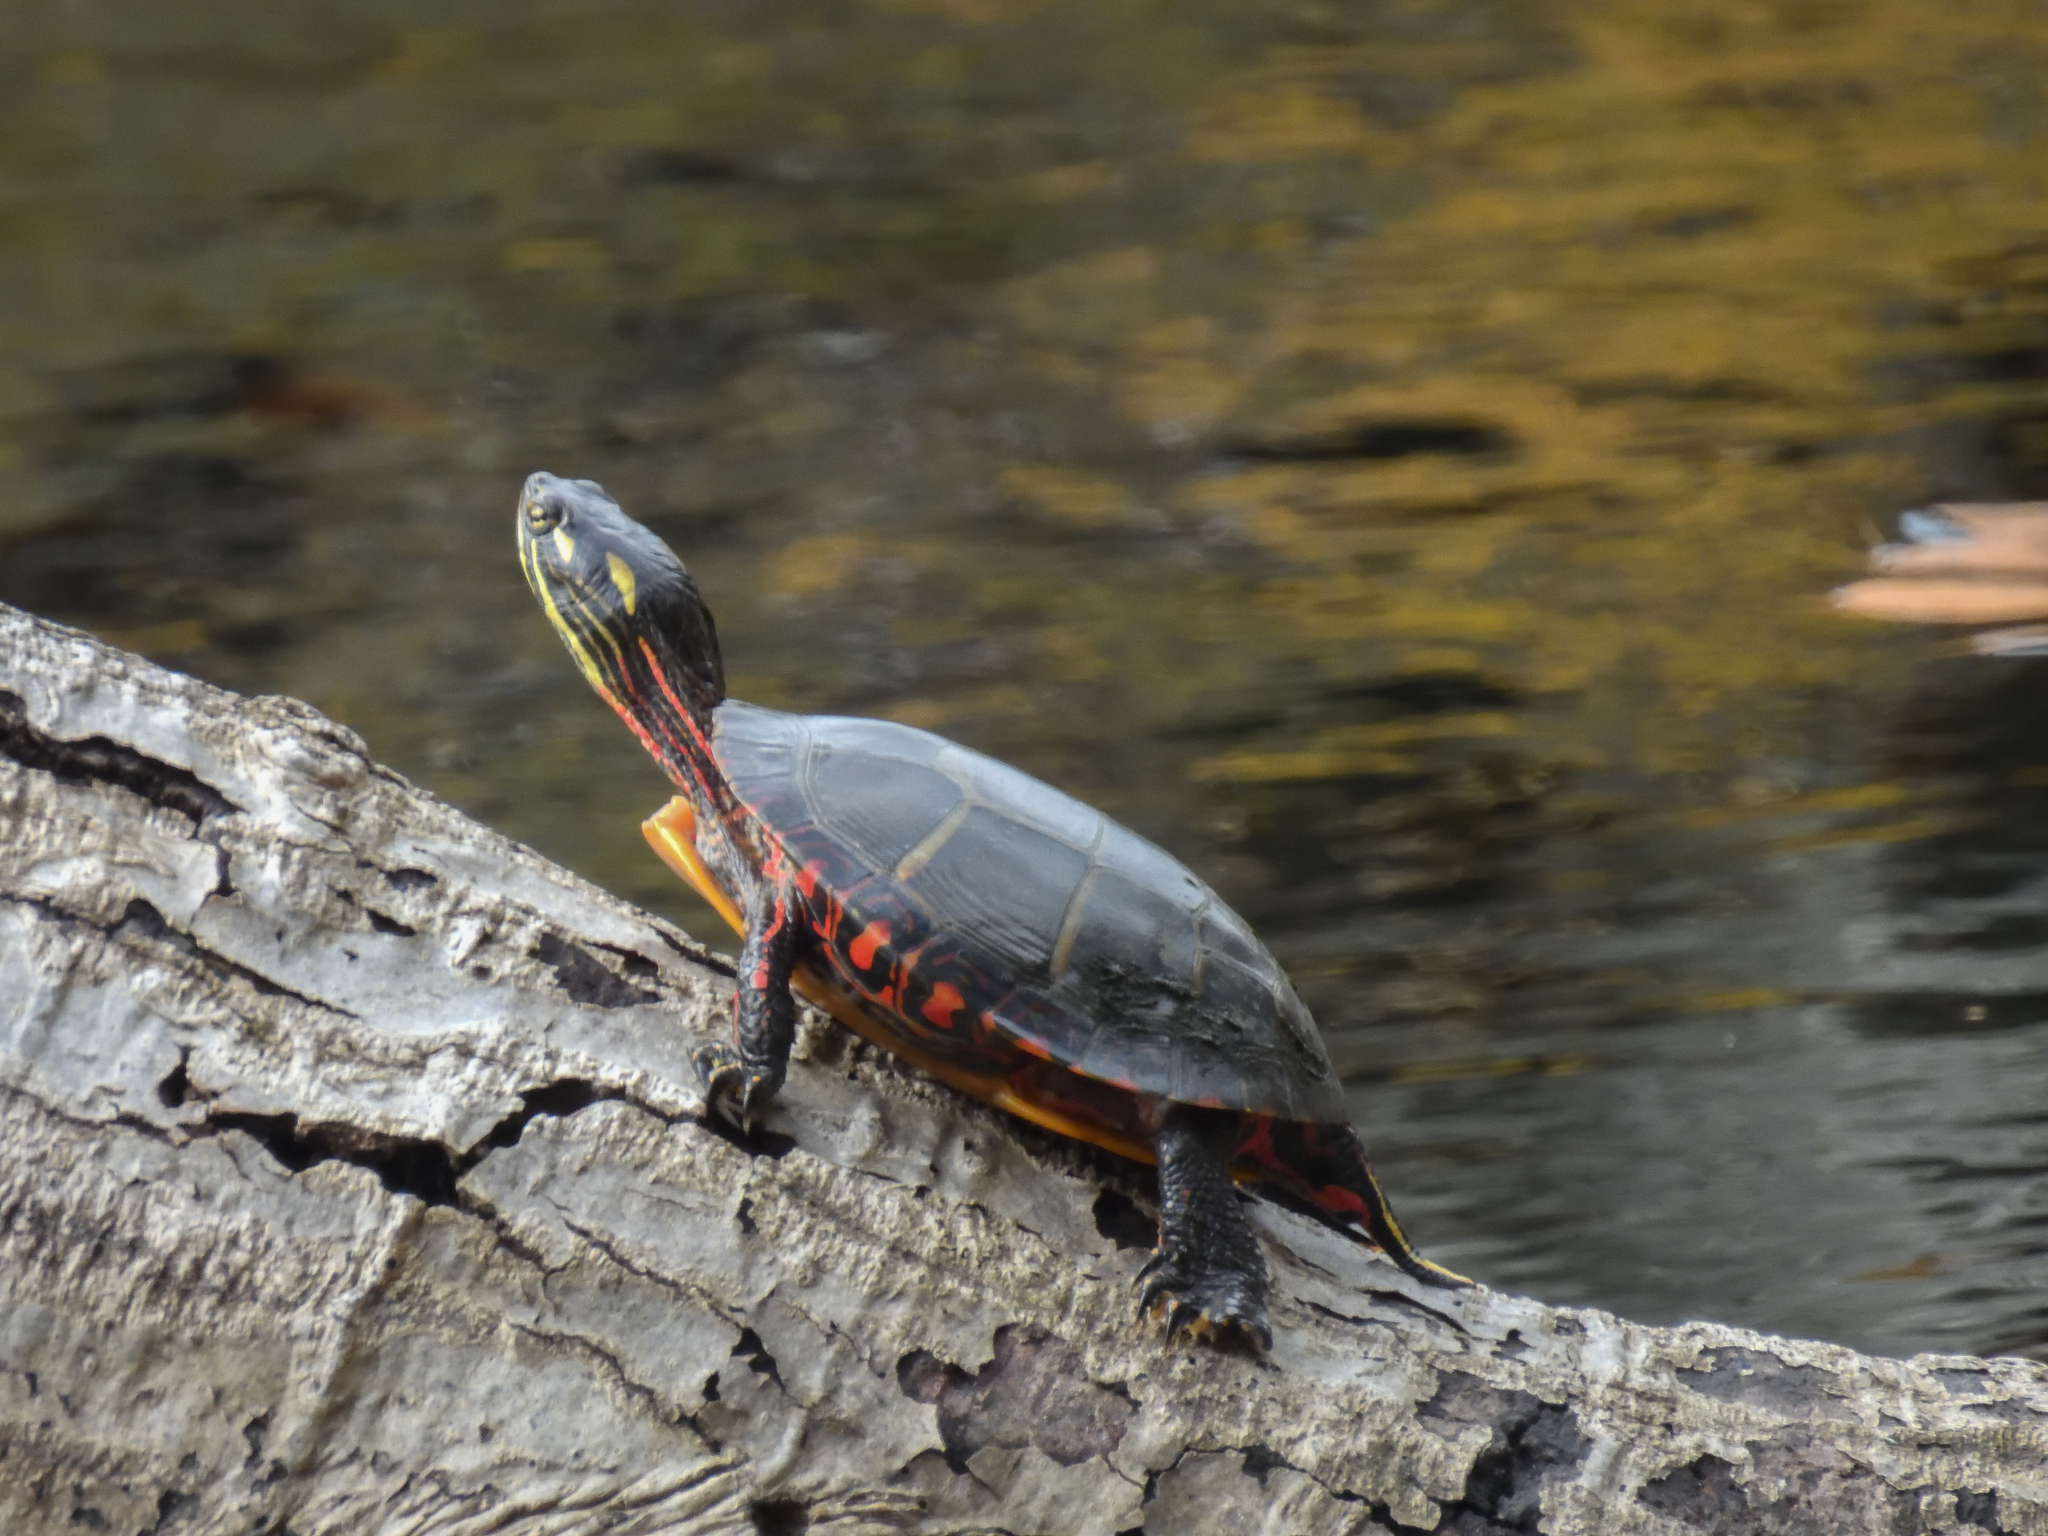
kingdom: Animalia
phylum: Chordata
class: Testudines
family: Emydidae
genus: Chrysemys
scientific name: Chrysemys picta
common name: Painted turtle
